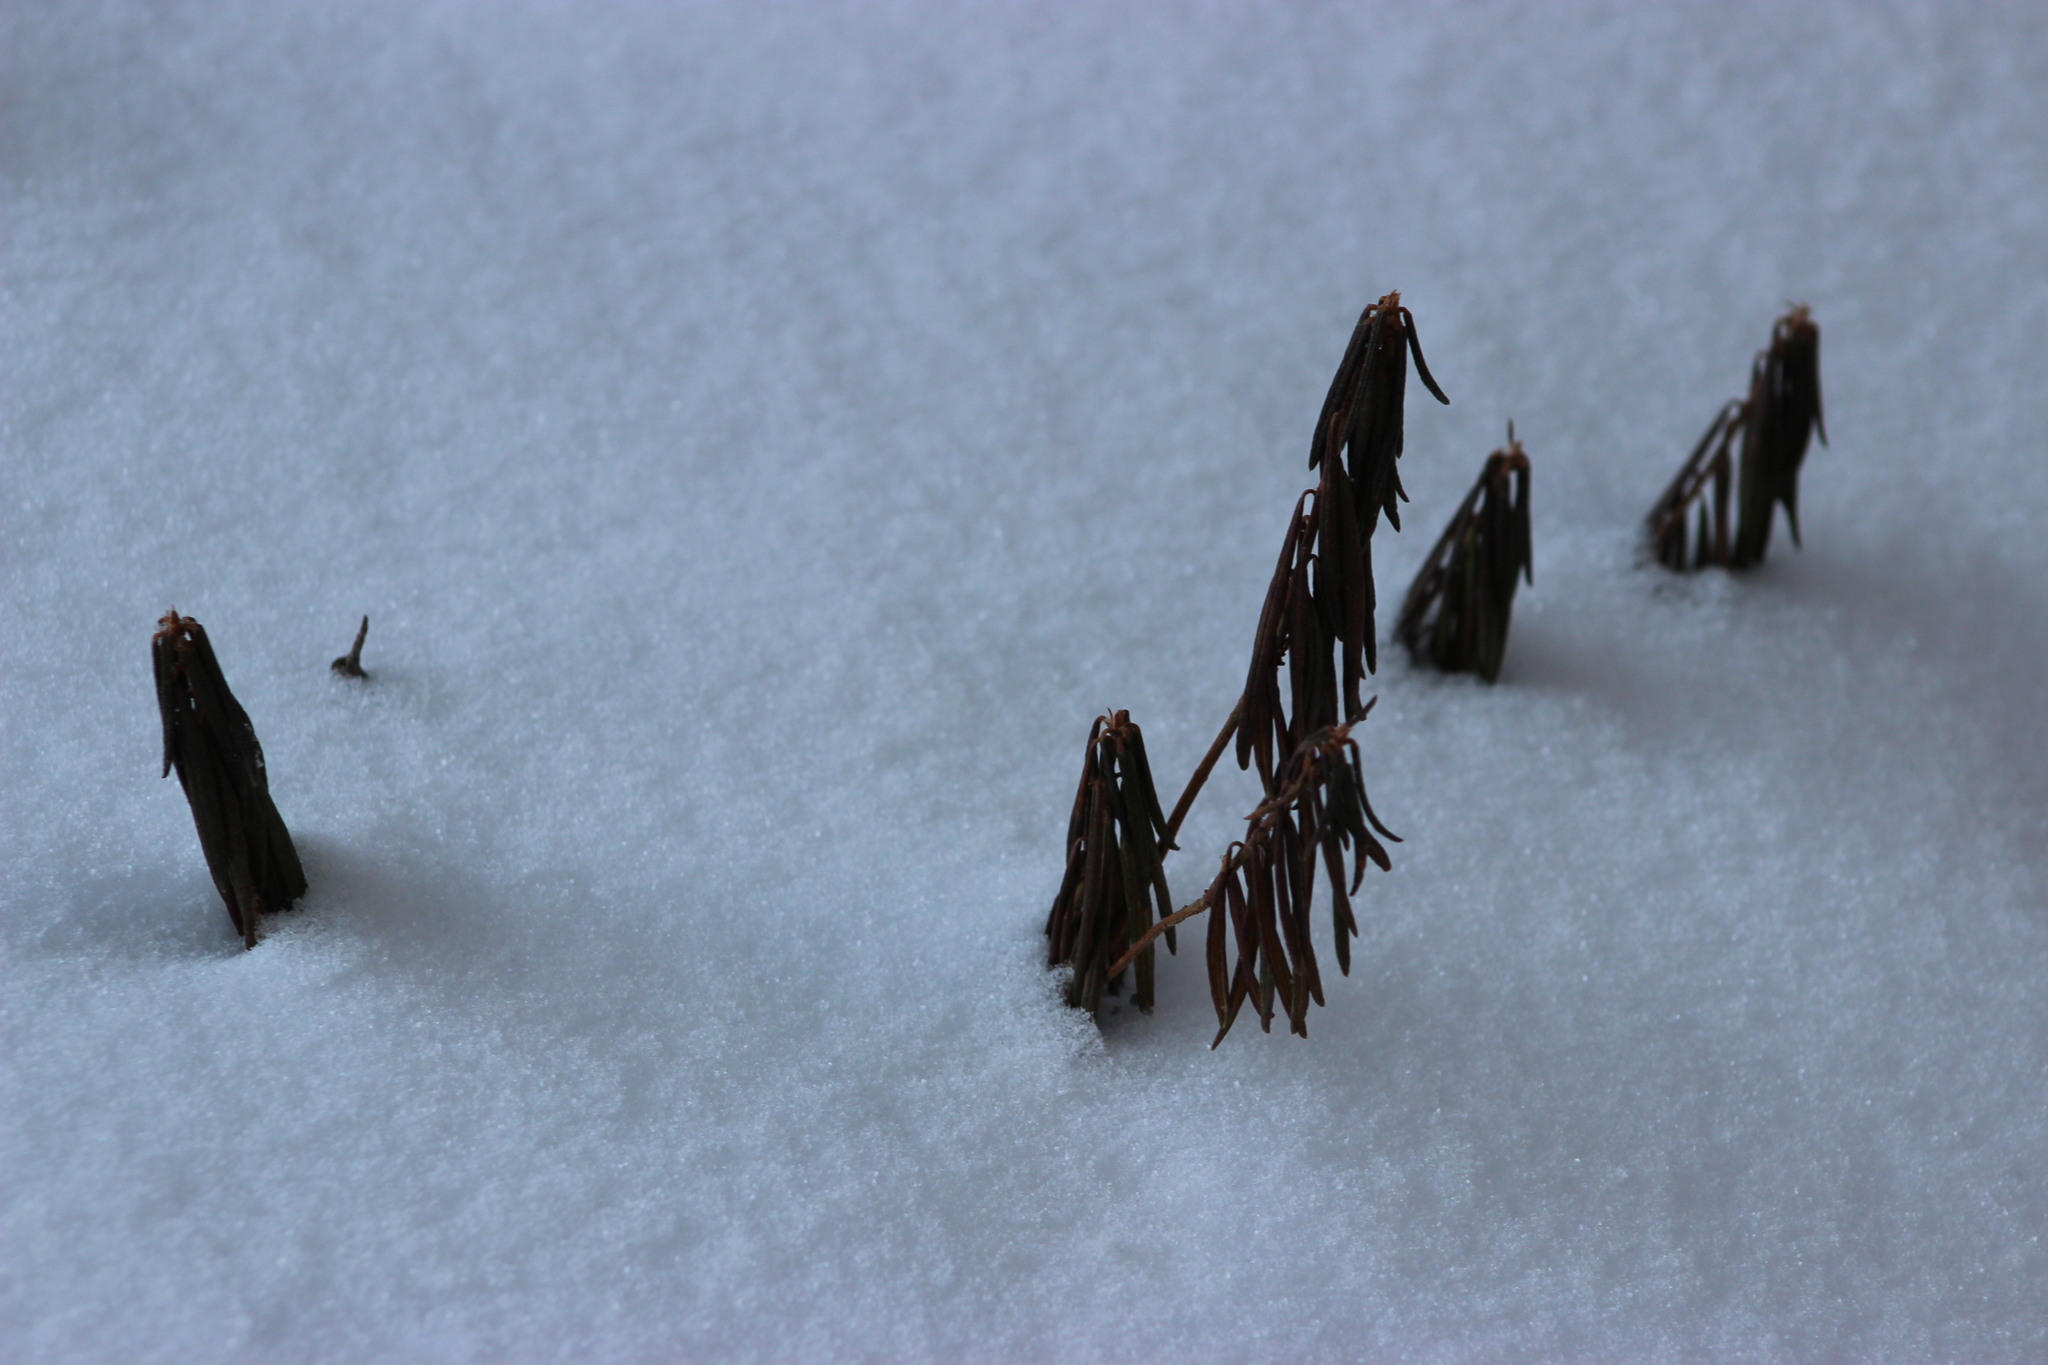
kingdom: Plantae
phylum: Tracheophyta
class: Magnoliopsida
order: Ericales
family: Ericaceae
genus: Rhododendron
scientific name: Rhododendron tomentosum
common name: Marsh labrador tea
